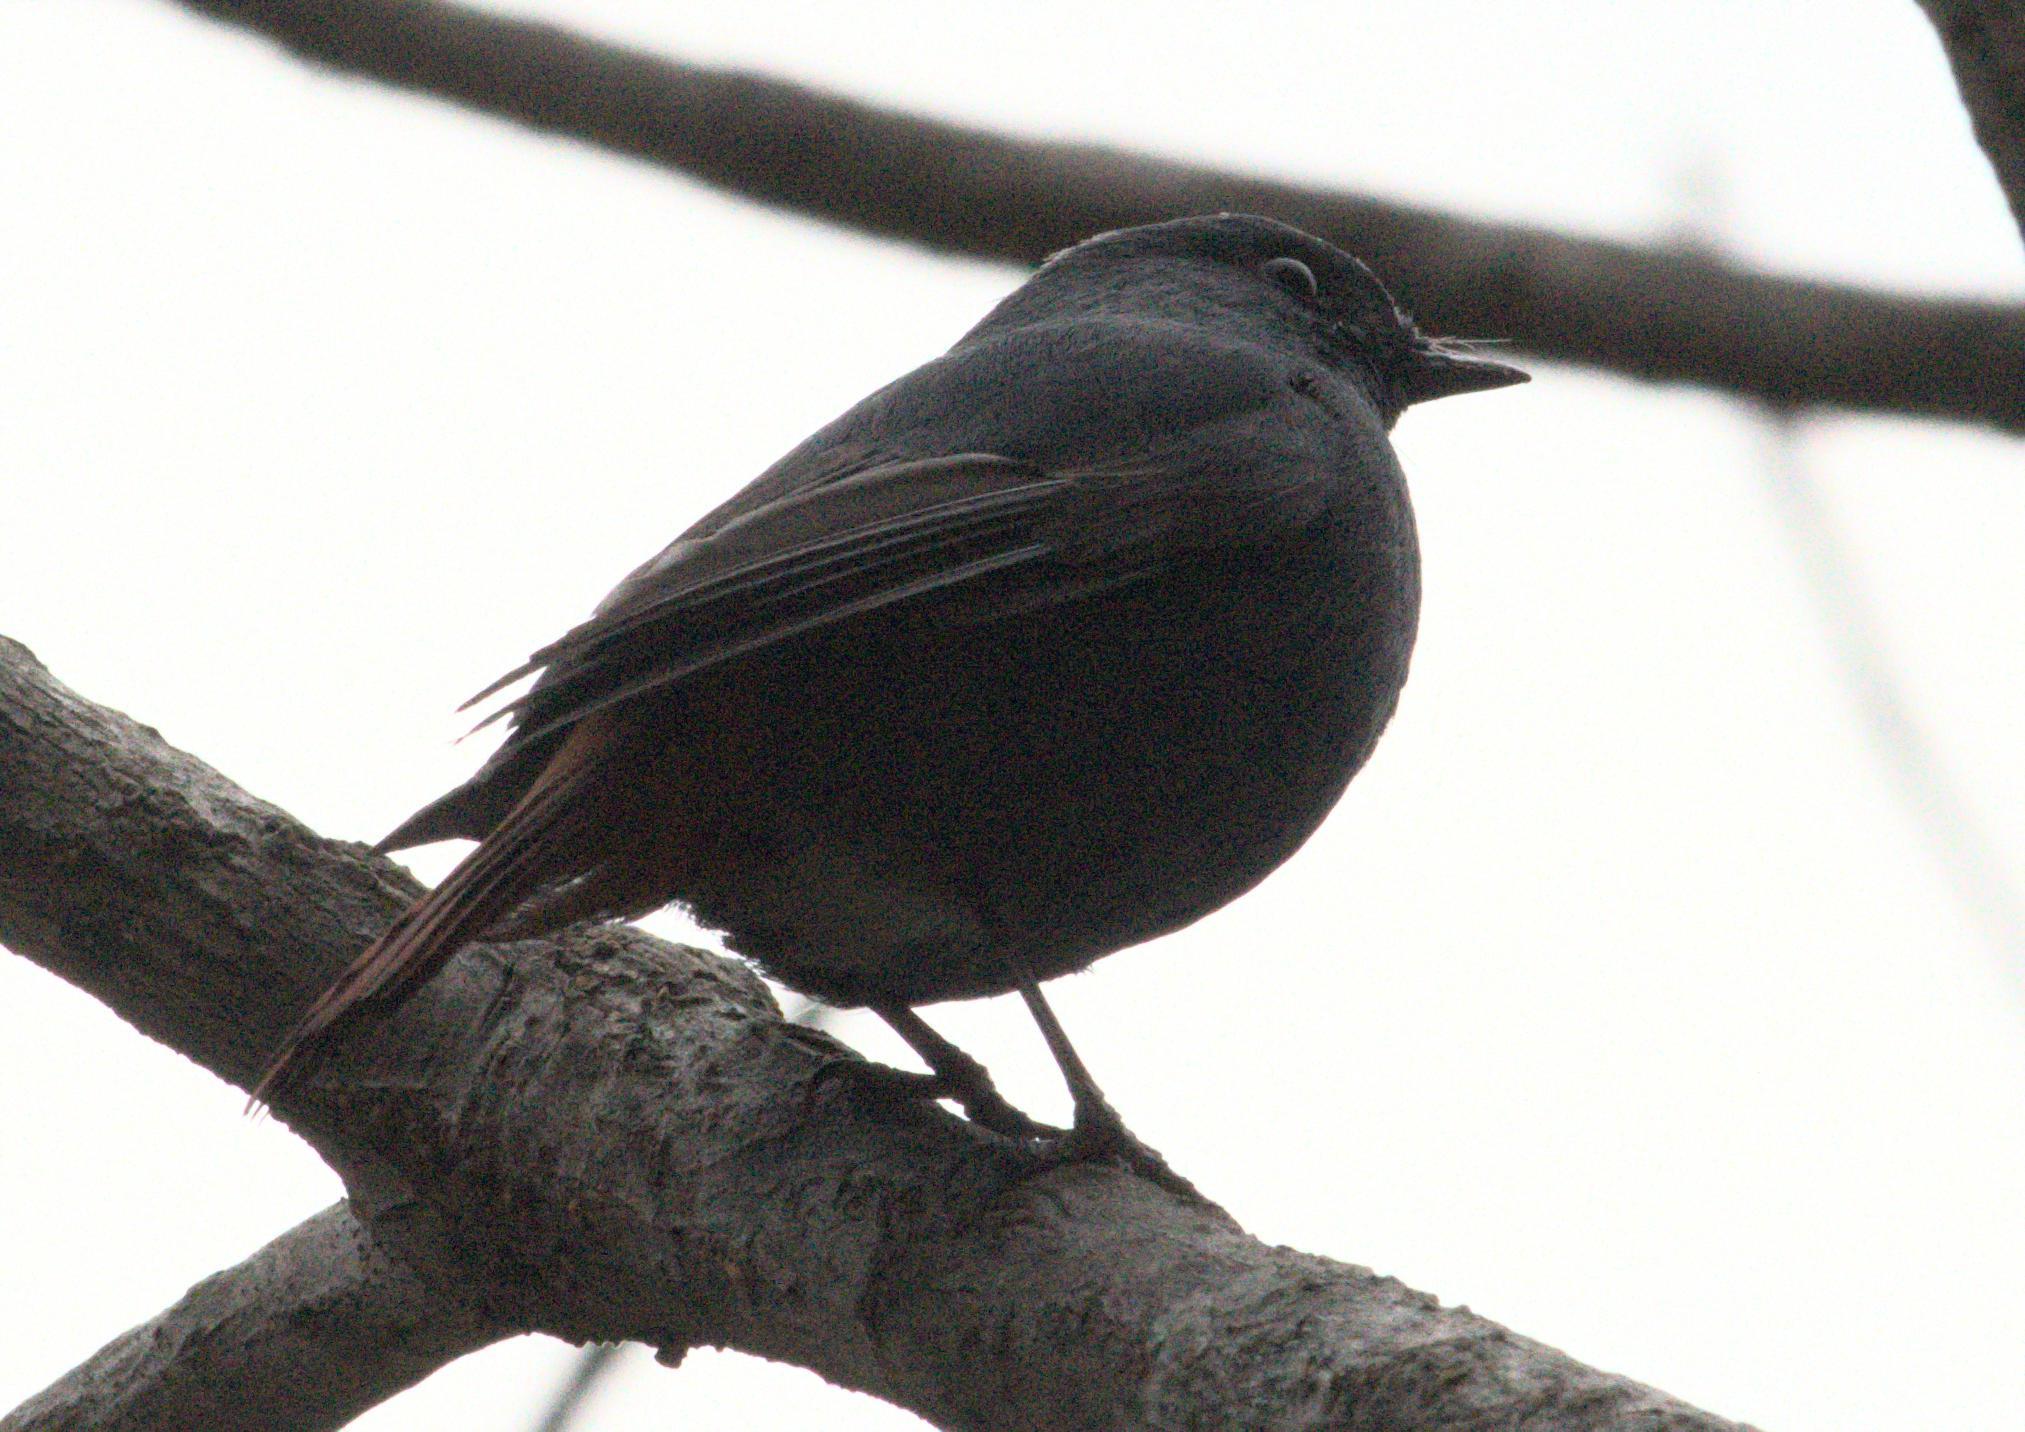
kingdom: Animalia
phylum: Chordata
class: Aves
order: Passeriformes
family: Muscicapidae
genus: Phoenicurus
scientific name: Phoenicurus fuliginosus
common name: Plumbeous water redstart
